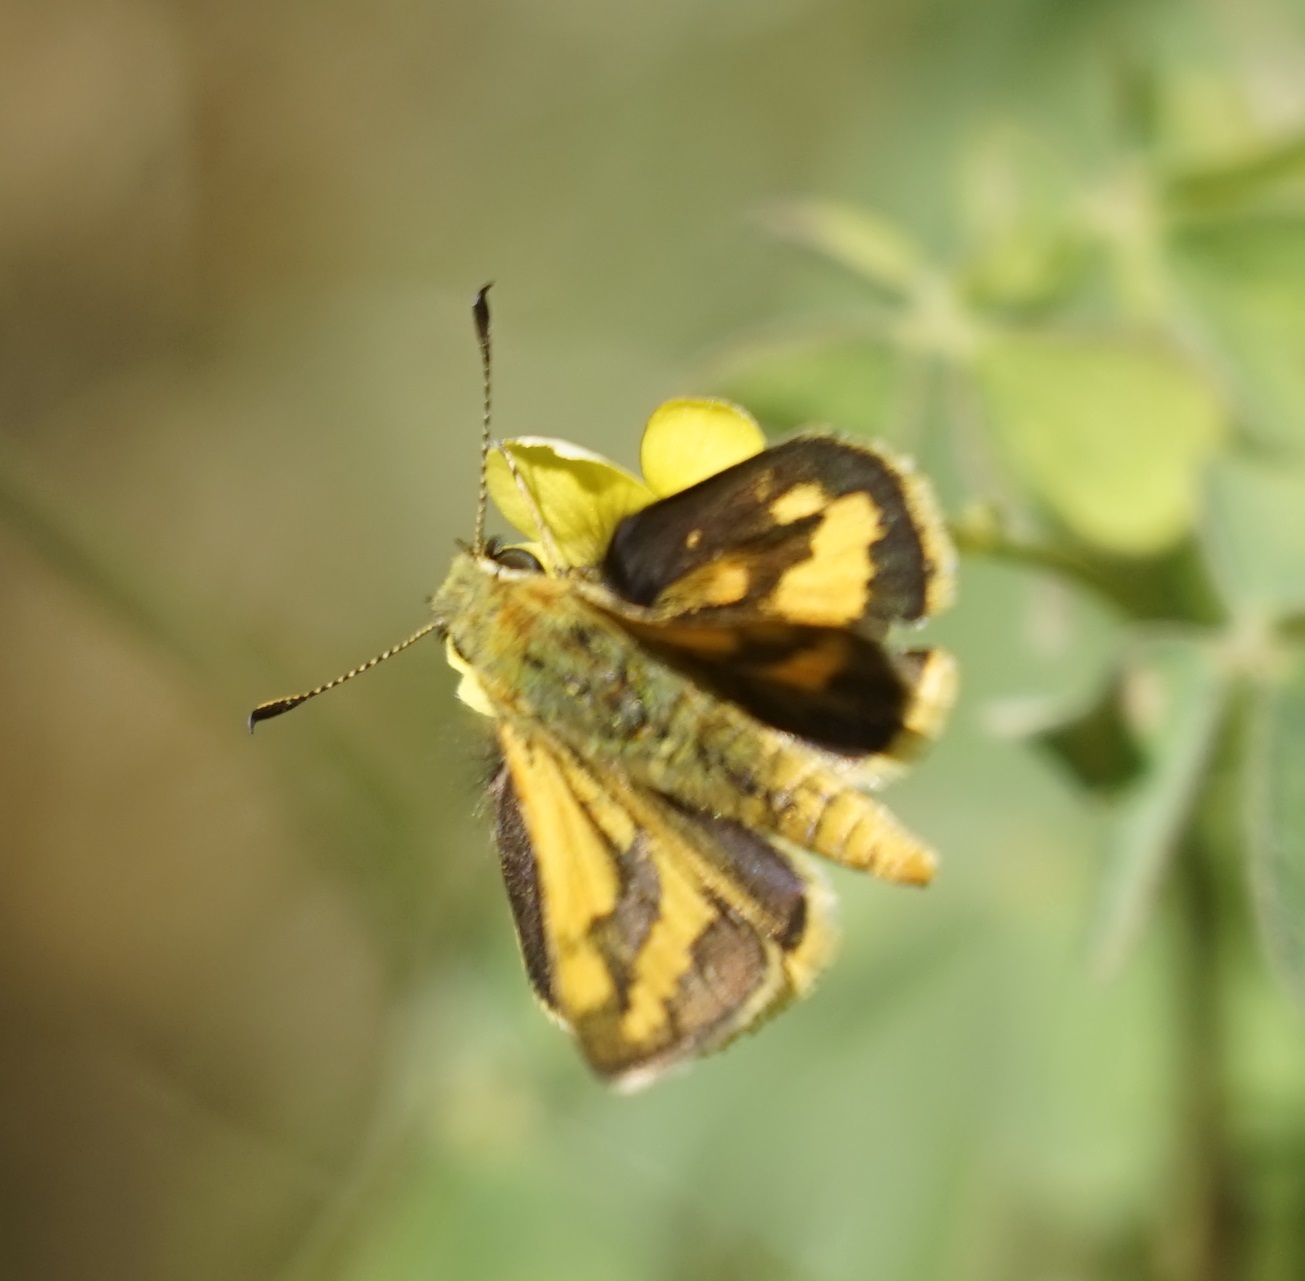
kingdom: Animalia
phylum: Arthropoda
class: Insecta
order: Lepidoptera
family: Hesperiidae
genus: Ocybadistes
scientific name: Ocybadistes walkeri
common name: Yellow-banded dart
